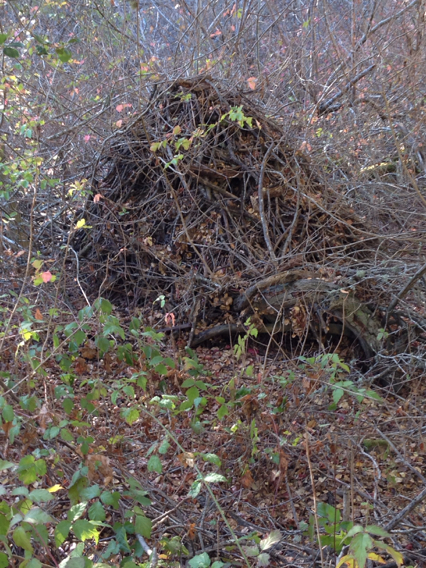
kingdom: Animalia
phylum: Chordata
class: Mammalia
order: Rodentia
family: Cricetidae
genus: Neotoma
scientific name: Neotoma fuscipes
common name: Dusky-footed woodrat
